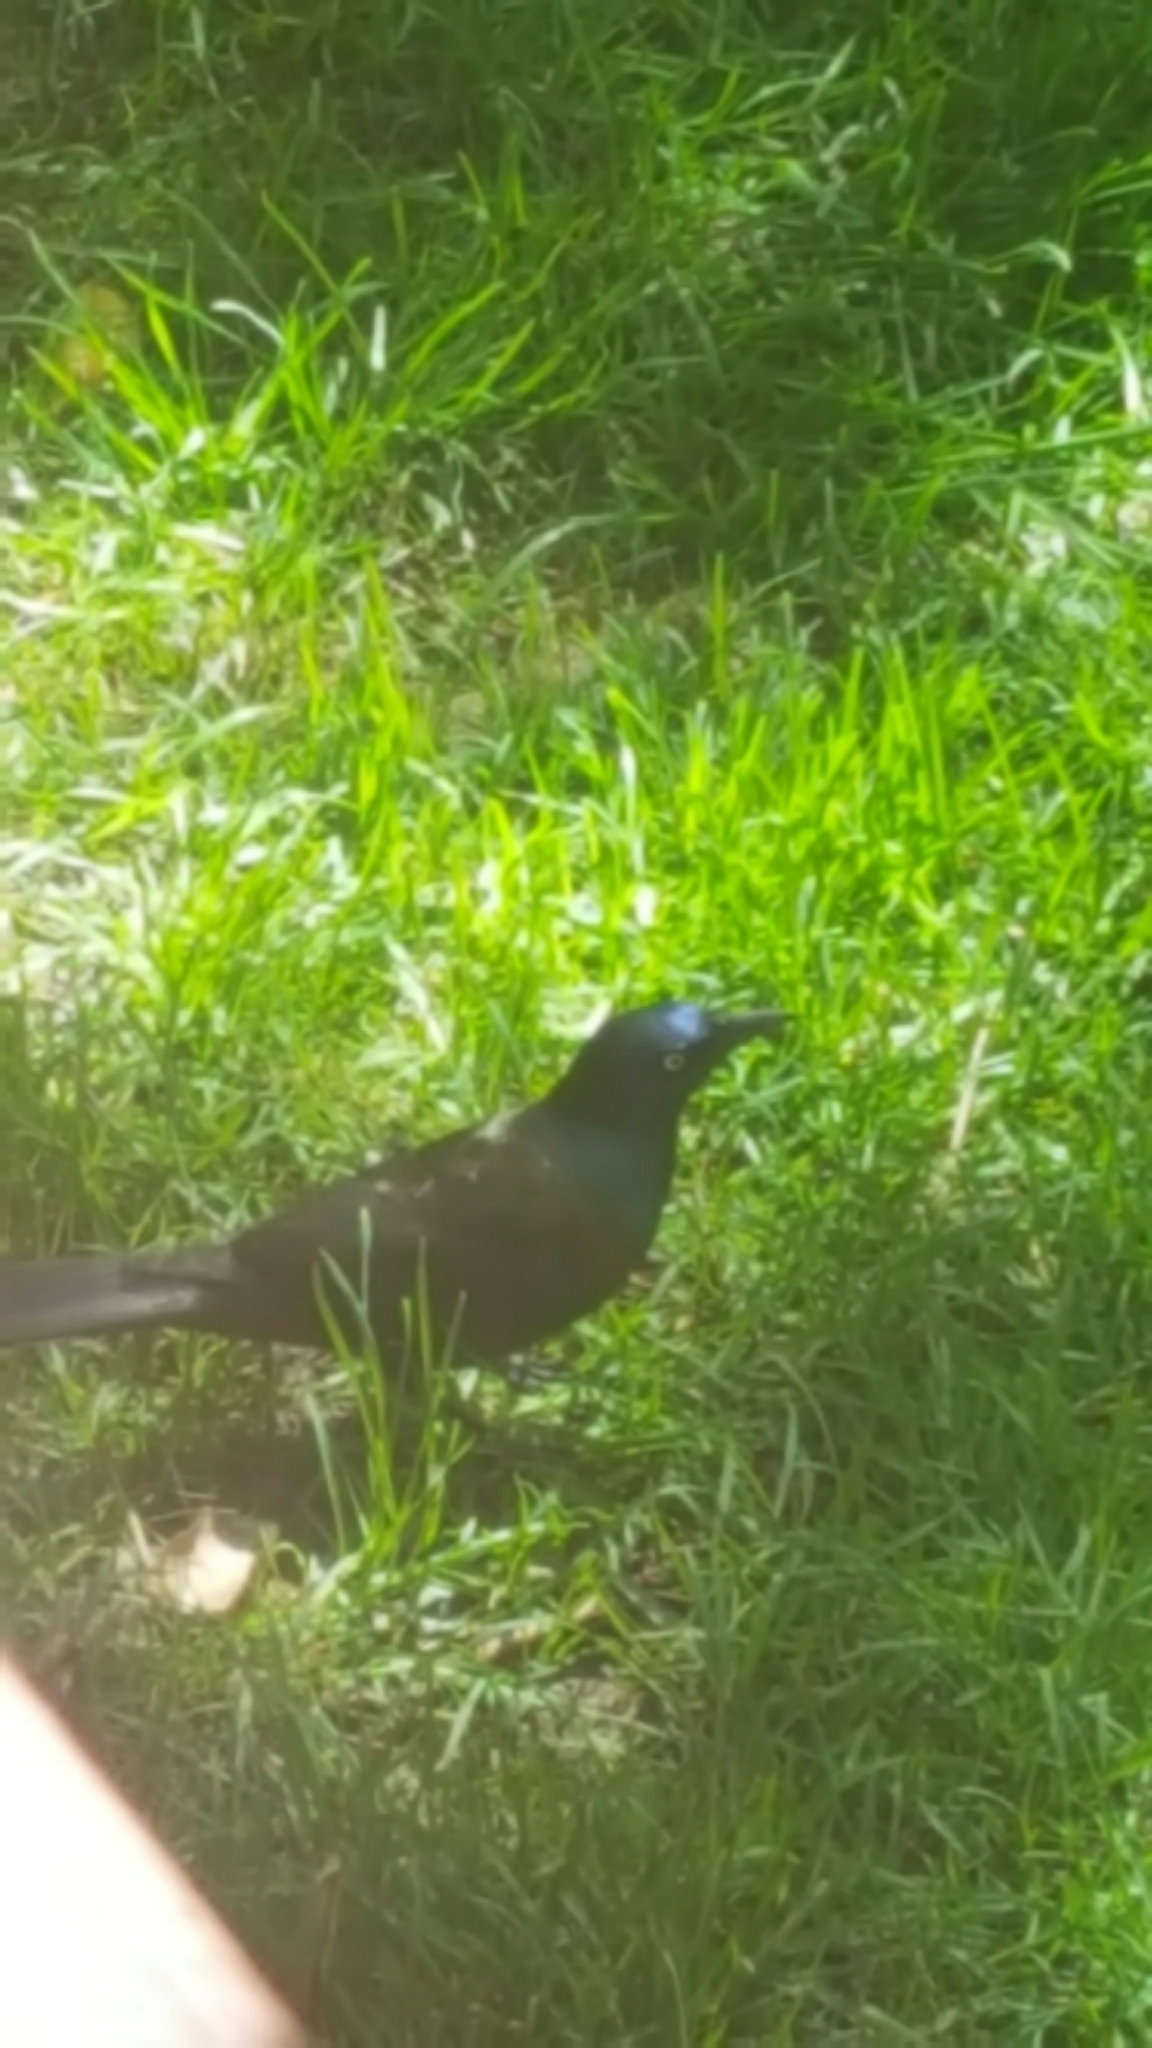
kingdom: Animalia
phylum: Chordata
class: Aves
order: Passeriformes
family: Icteridae
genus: Quiscalus
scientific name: Quiscalus quiscula
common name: Common grackle
